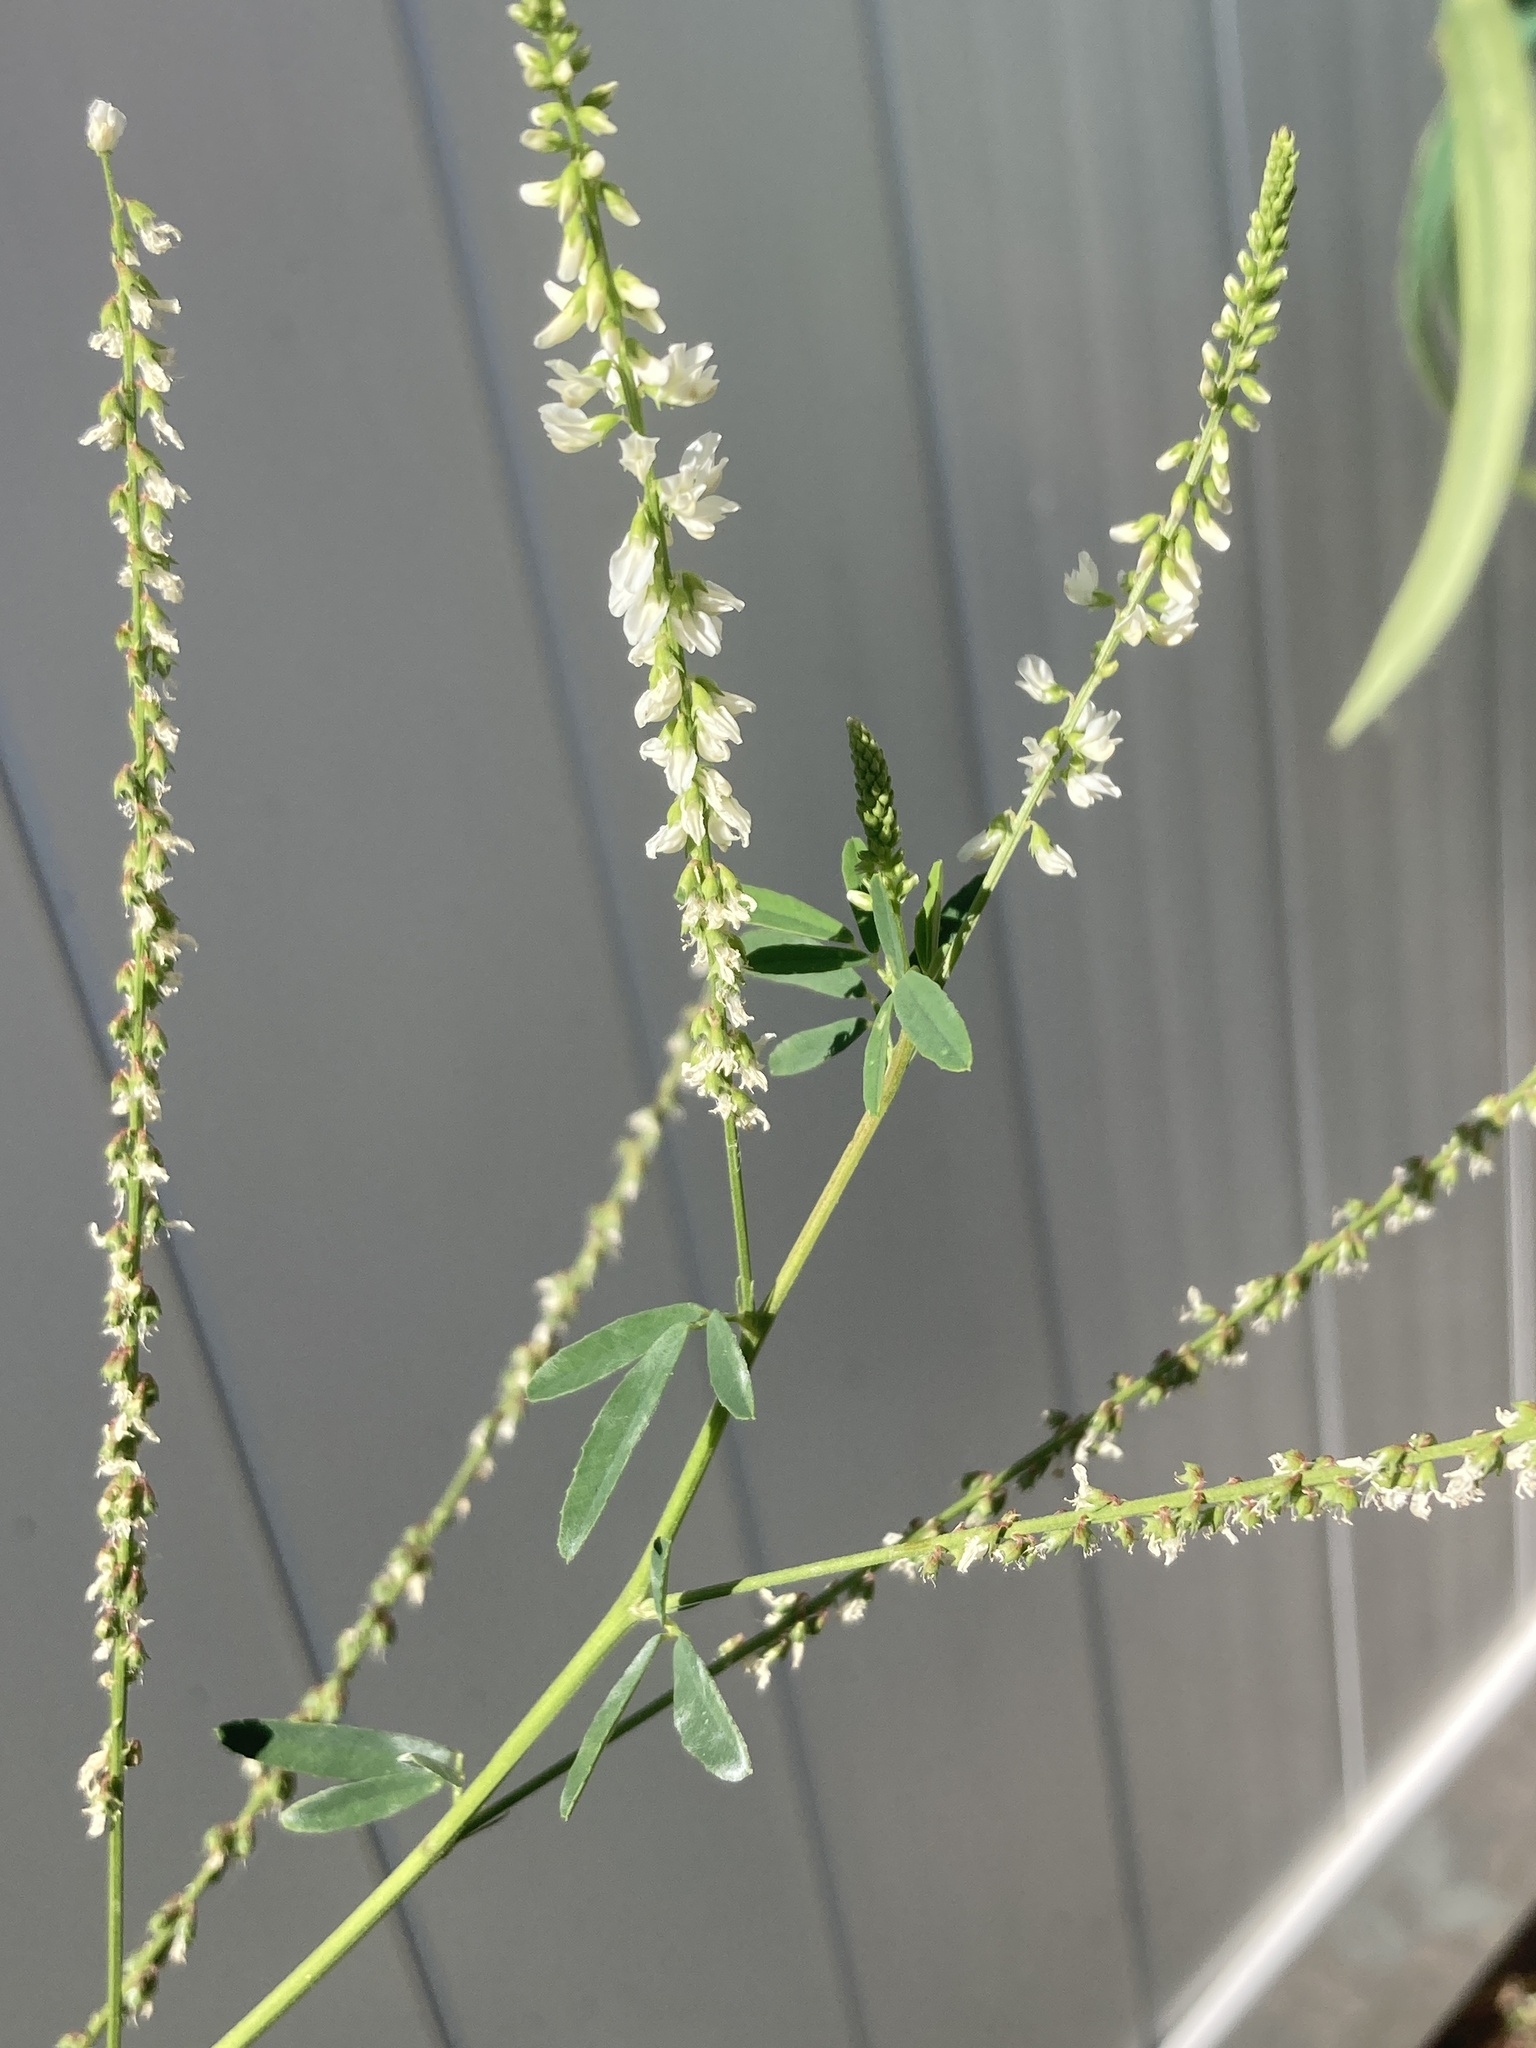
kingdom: Plantae
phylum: Tracheophyta
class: Magnoliopsida
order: Fabales
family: Fabaceae
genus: Melilotus
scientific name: Melilotus albus
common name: White melilot
